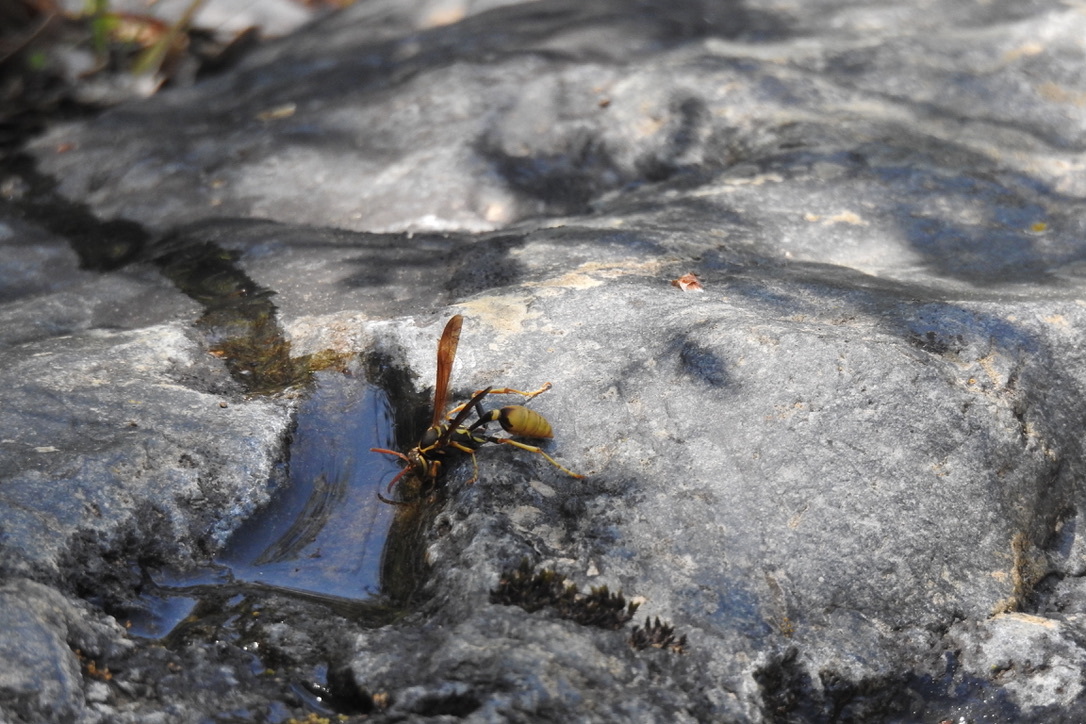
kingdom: Animalia
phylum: Arthropoda
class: Insecta
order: Hymenoptera
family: Vespidae
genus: Mischocyttarus
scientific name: Mischocyttarus flavitarsis
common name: Wasp
